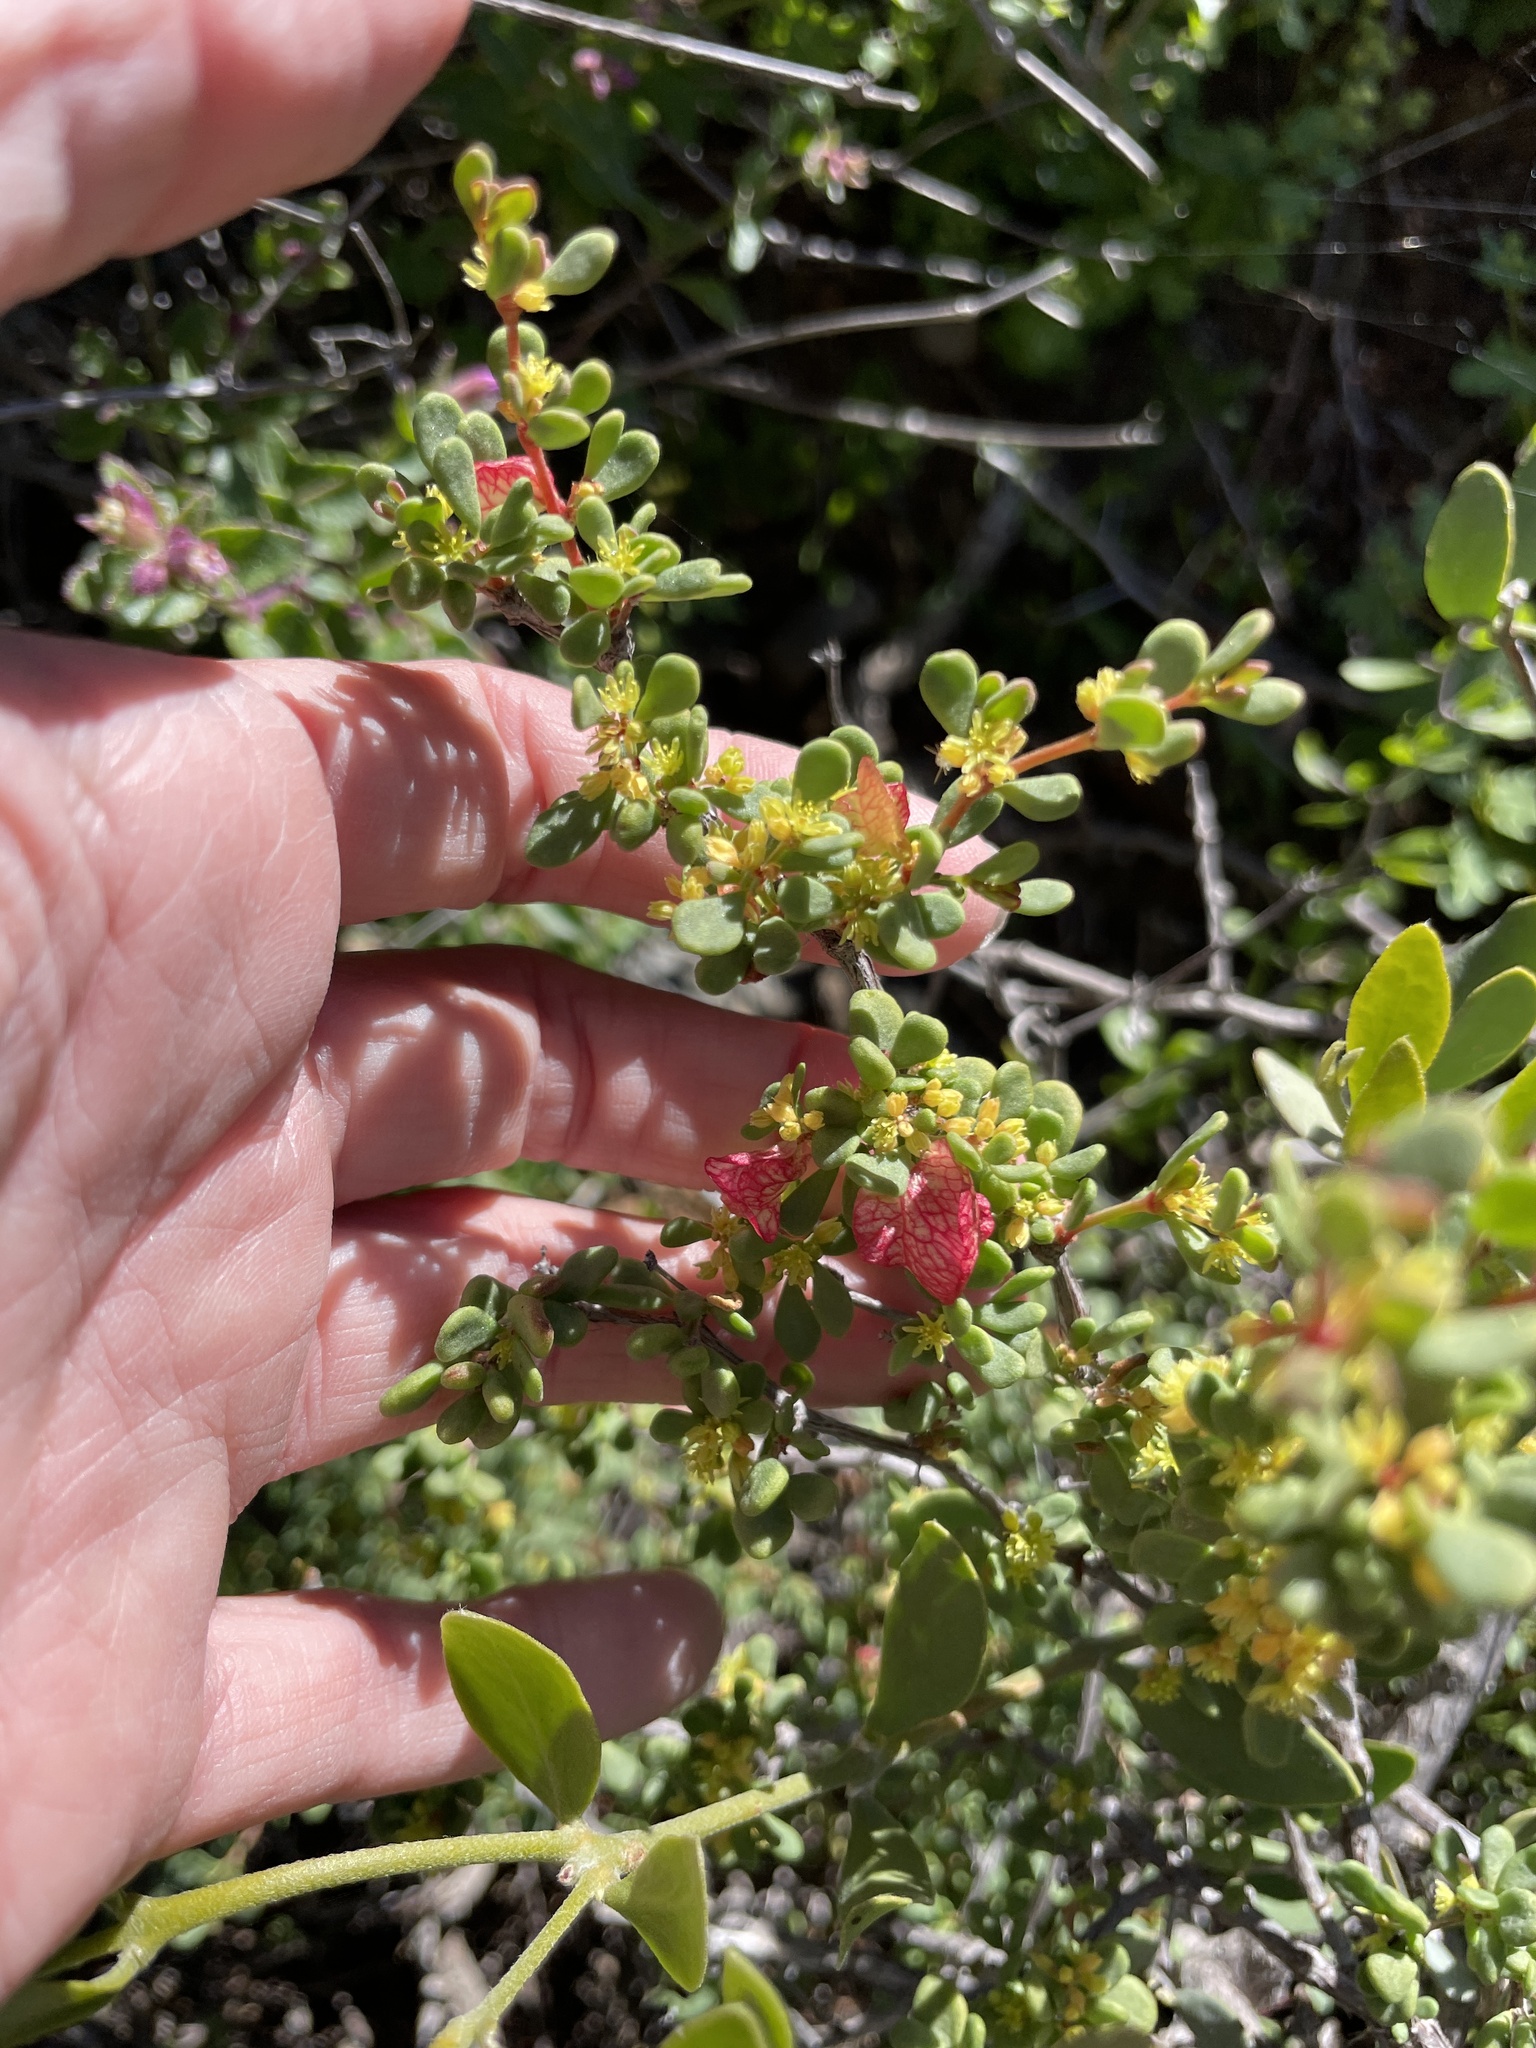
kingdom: Plantae
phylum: Tracheophyta
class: Magnoliopsida
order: Caryophyllales
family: Polygonaceae
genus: Harfordia
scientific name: Harfordia macroptera
